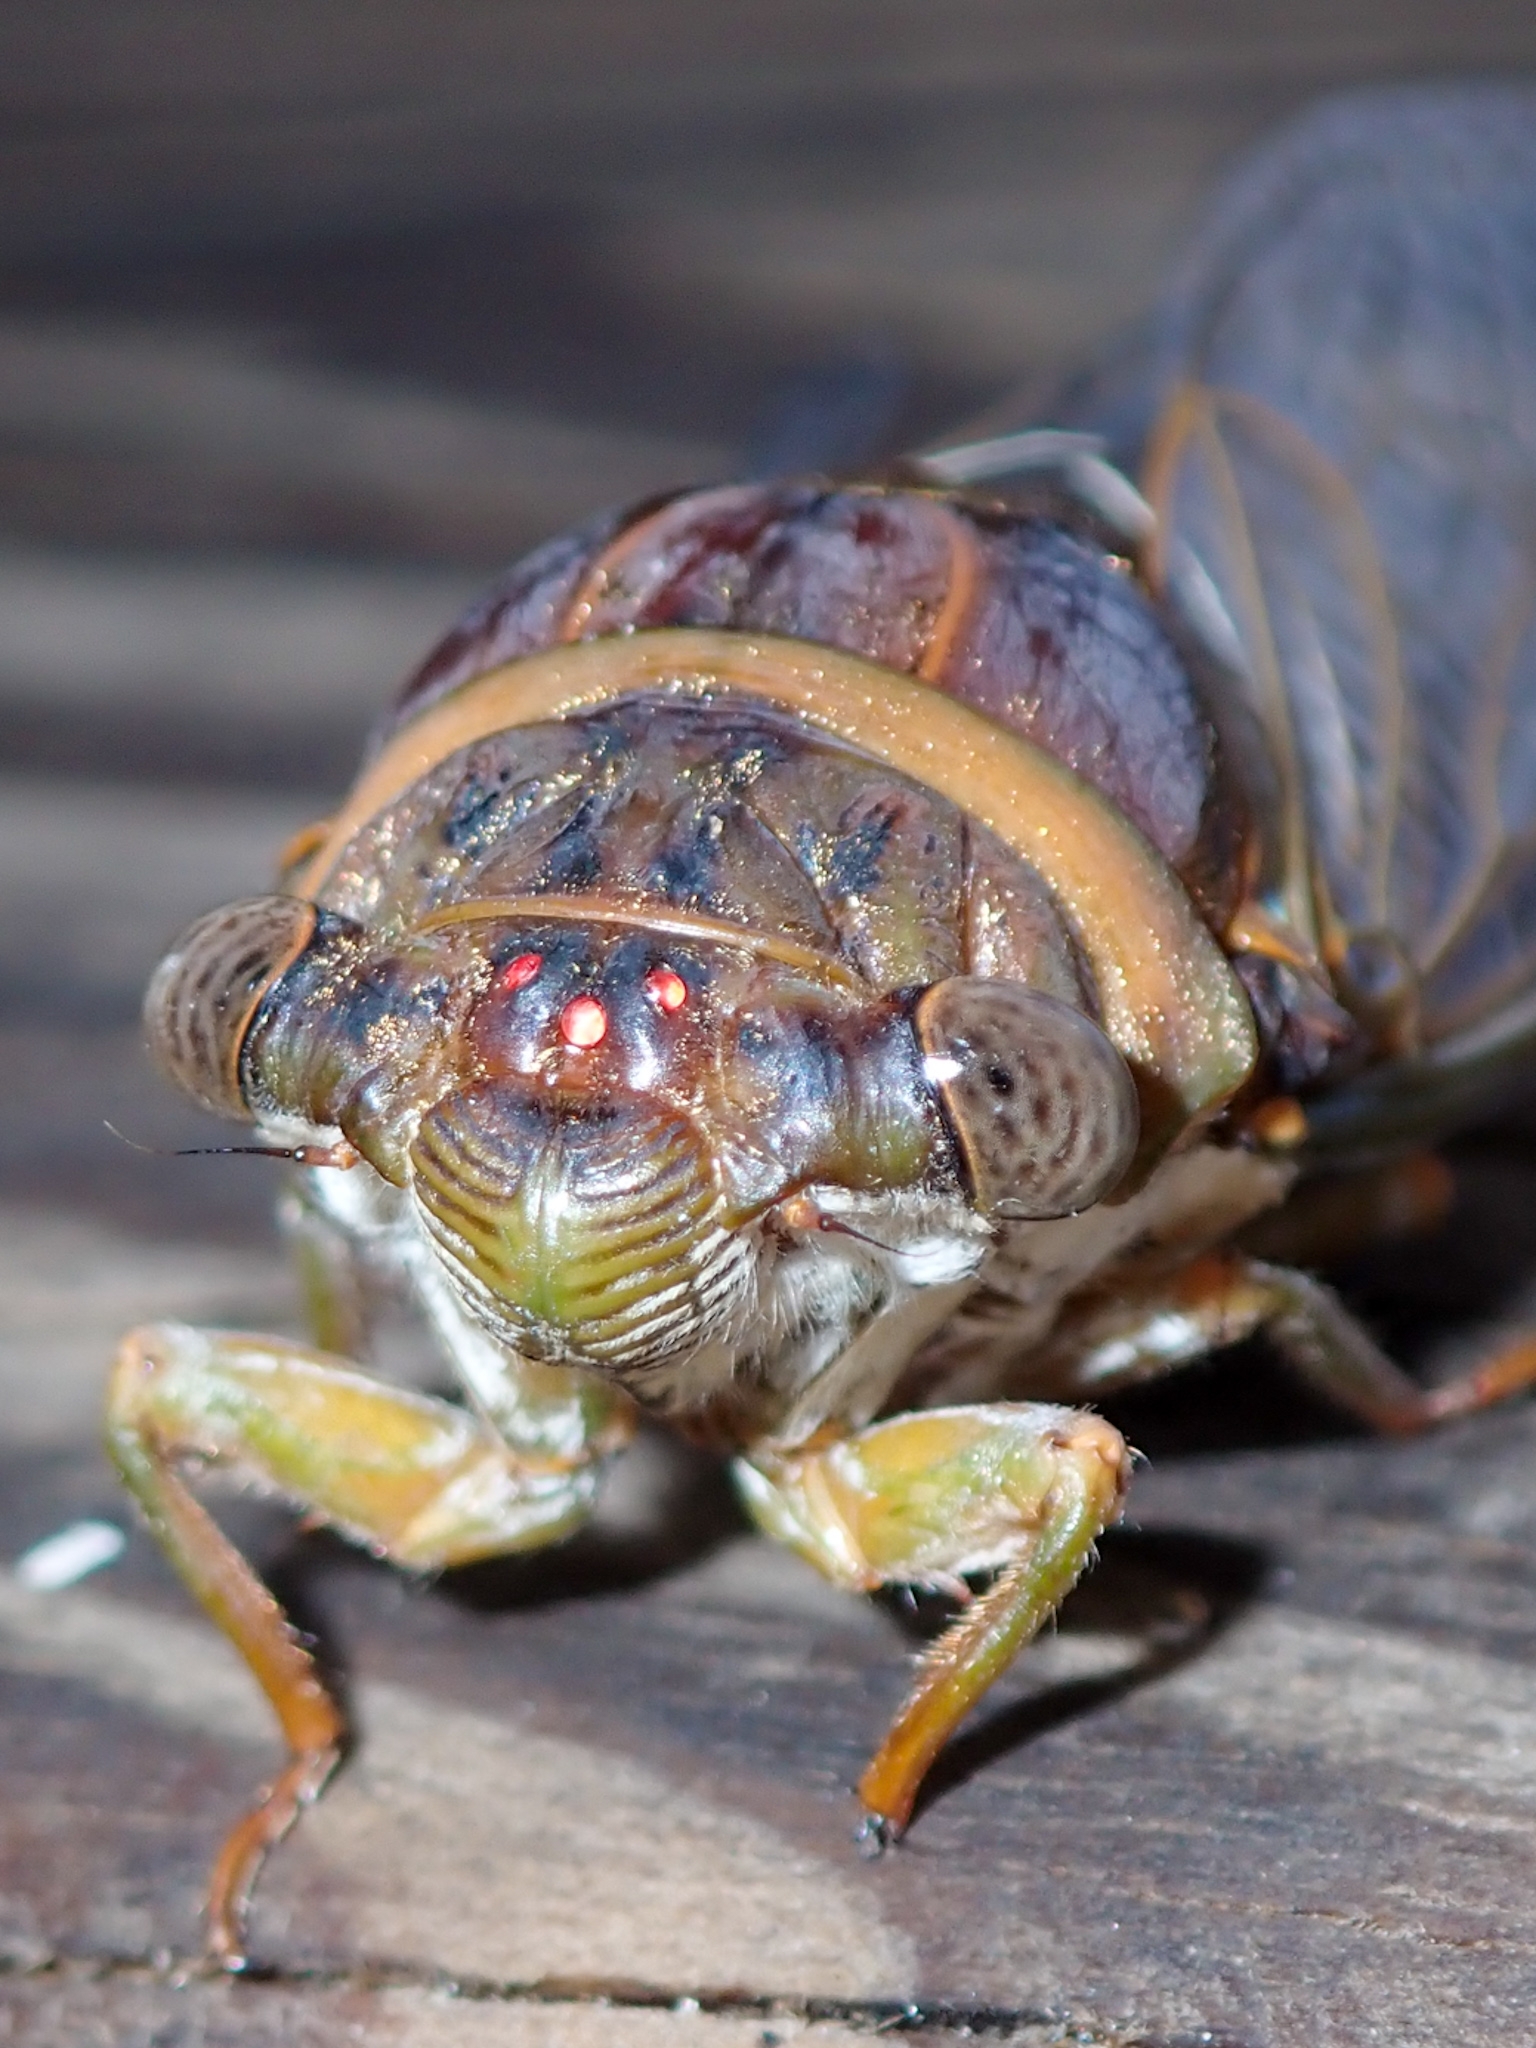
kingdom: Animalia
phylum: Arthropoda
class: Insecta
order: Hemiptera
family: Cicadidae
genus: Diceroprocta
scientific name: Diceroprocta cleavesi
